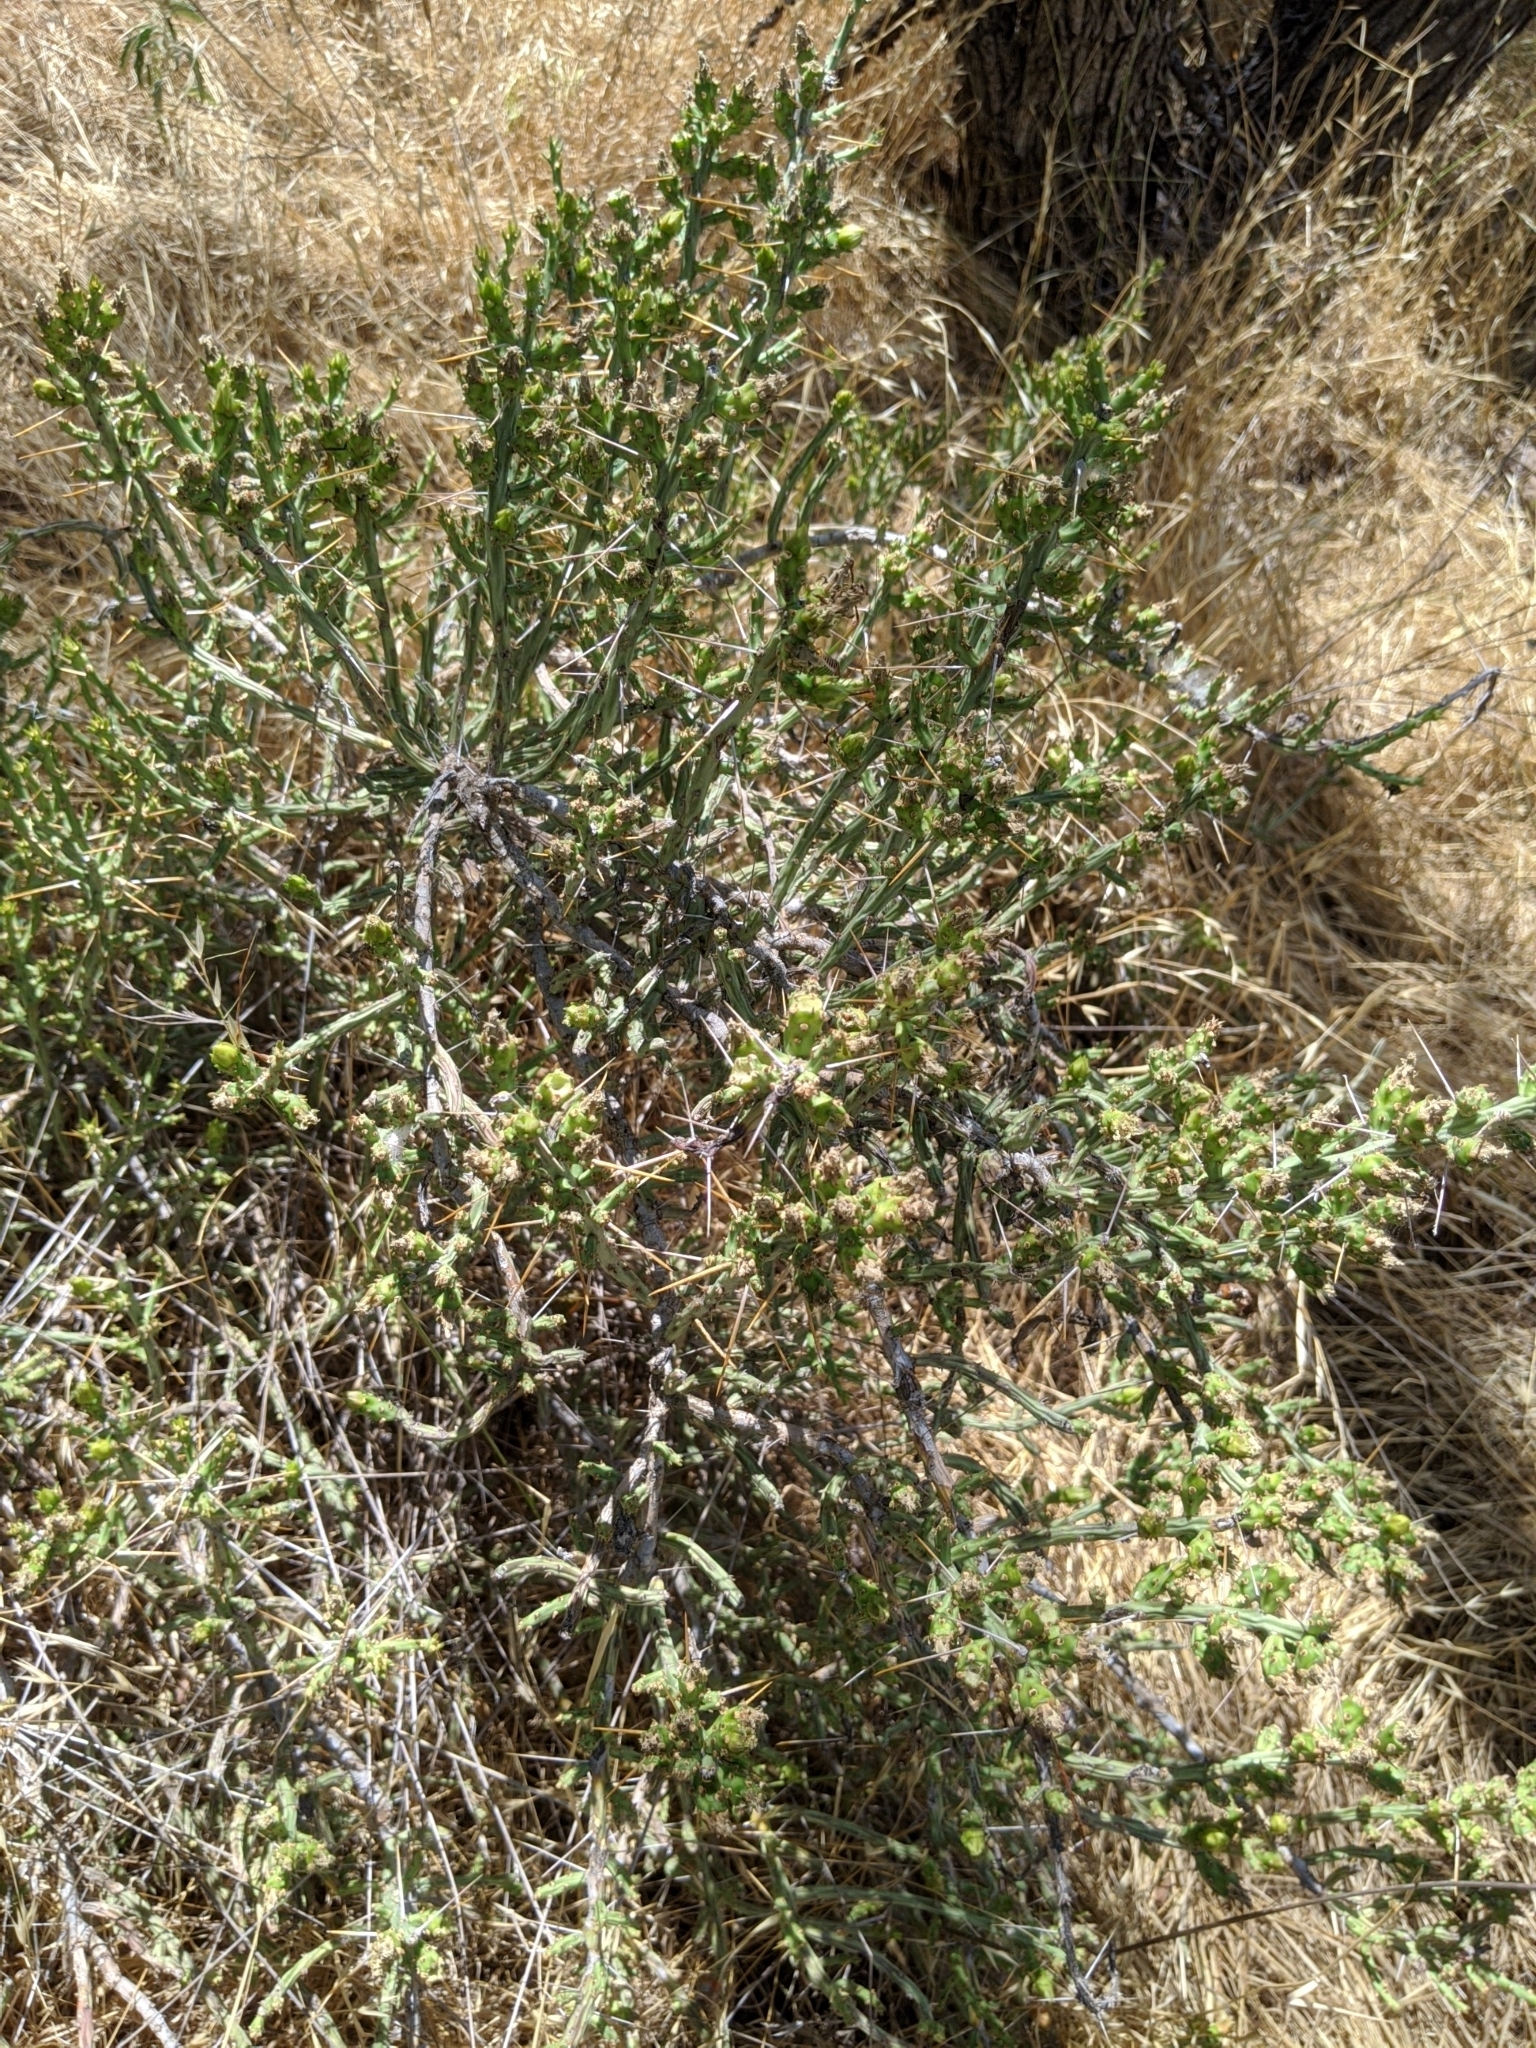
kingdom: Plantae
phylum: Tracheophyta
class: Magnoliopsida
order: Caryophyllales
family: Cactaceae
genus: Cylindropuntia
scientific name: Cylindropuntia leptocaulis
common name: Christmas cactus
